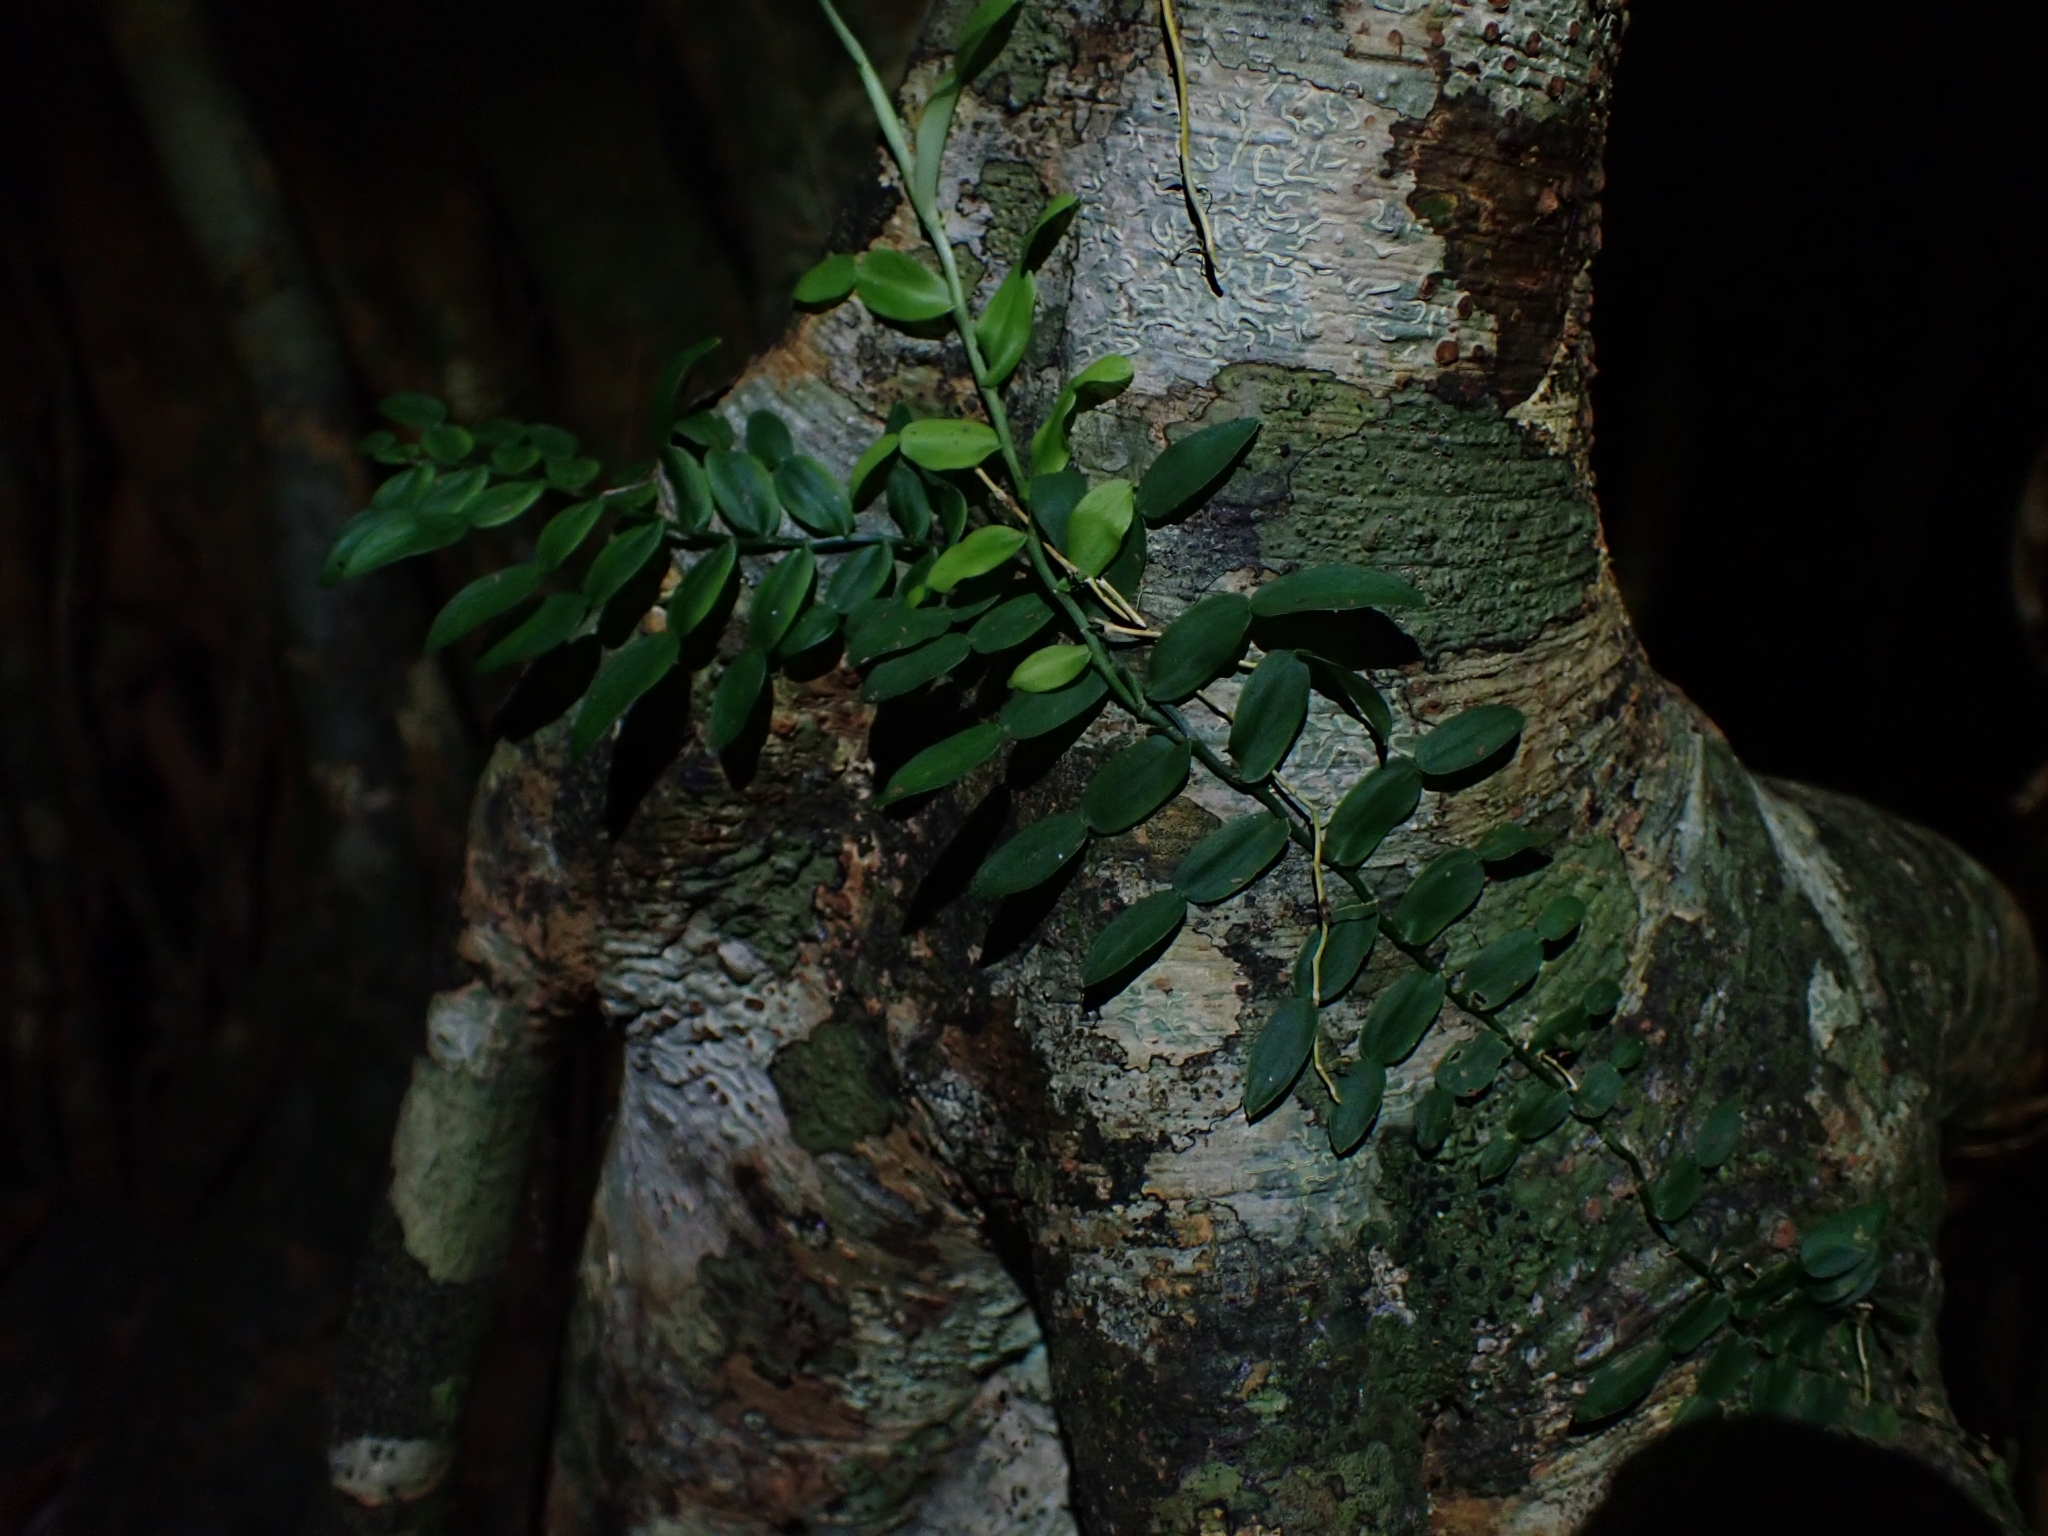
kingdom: Plantae
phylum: Tracheophyta
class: Liliopsida
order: Alismatales
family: Araceae
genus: Pothos
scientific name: Pothos longipes
